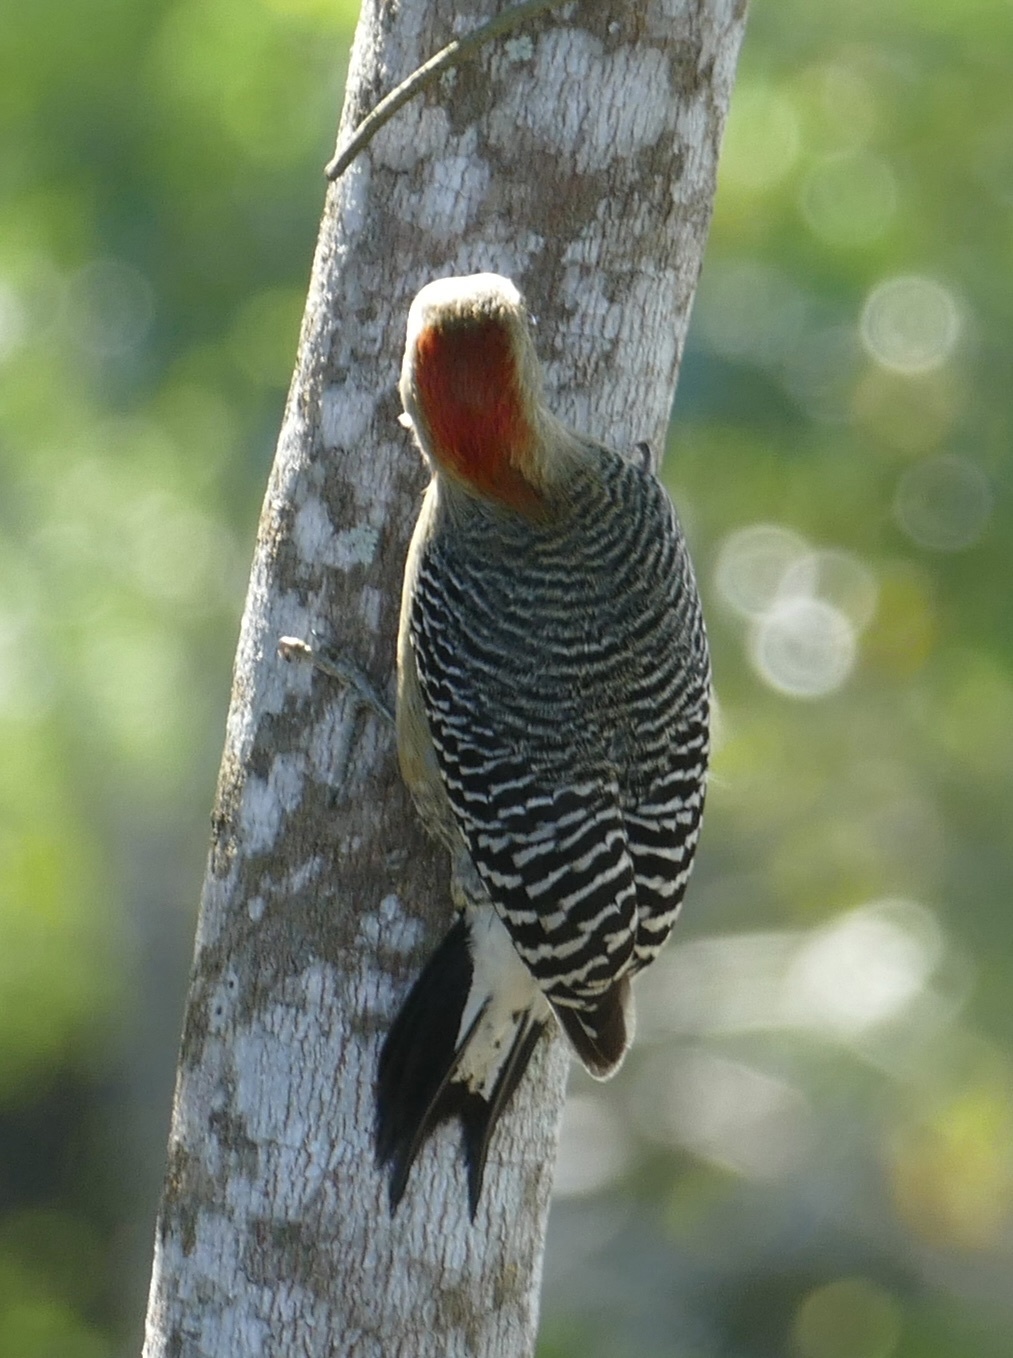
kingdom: Animalia
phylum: Chordata
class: Aves
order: Piciformes
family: Picidae
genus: Melanerpes
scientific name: Melanerpes pygmaeus
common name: Yucatan woodpecker
